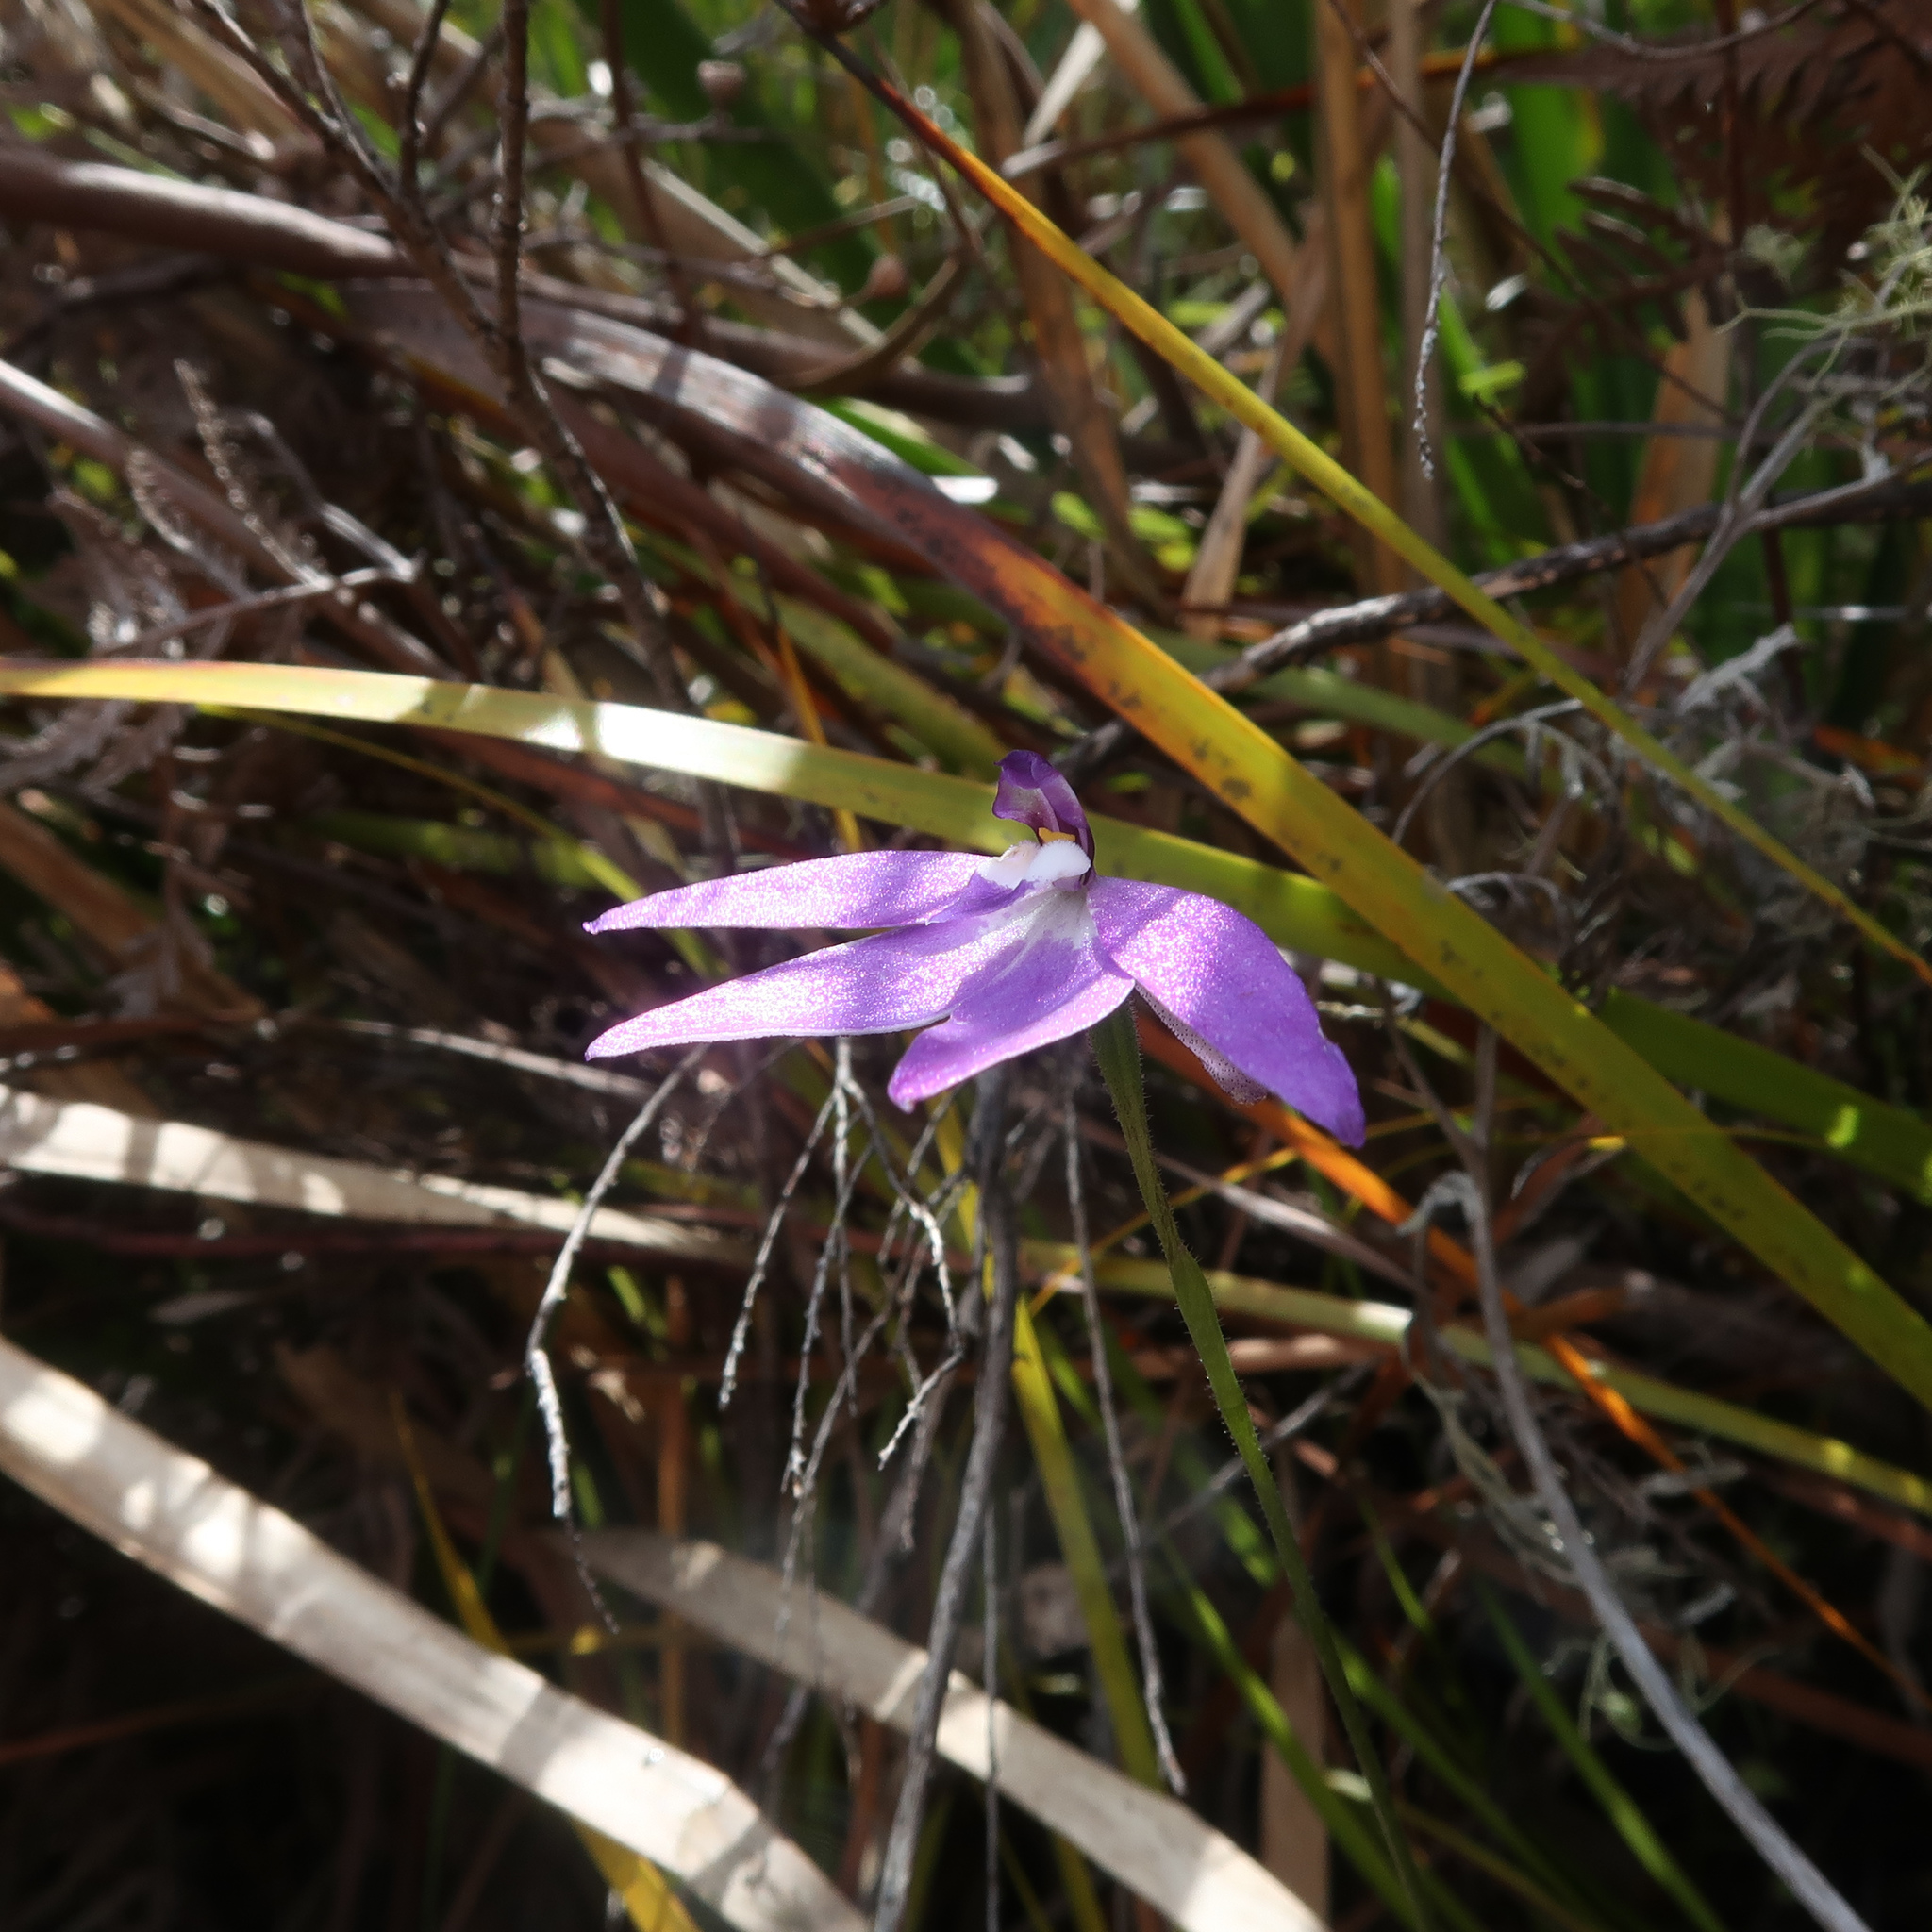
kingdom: Plantae
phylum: Tracheophyta
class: Liliopsida
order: Asparagales
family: Orchidaceae
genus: Caladenia
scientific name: Caladenia major
